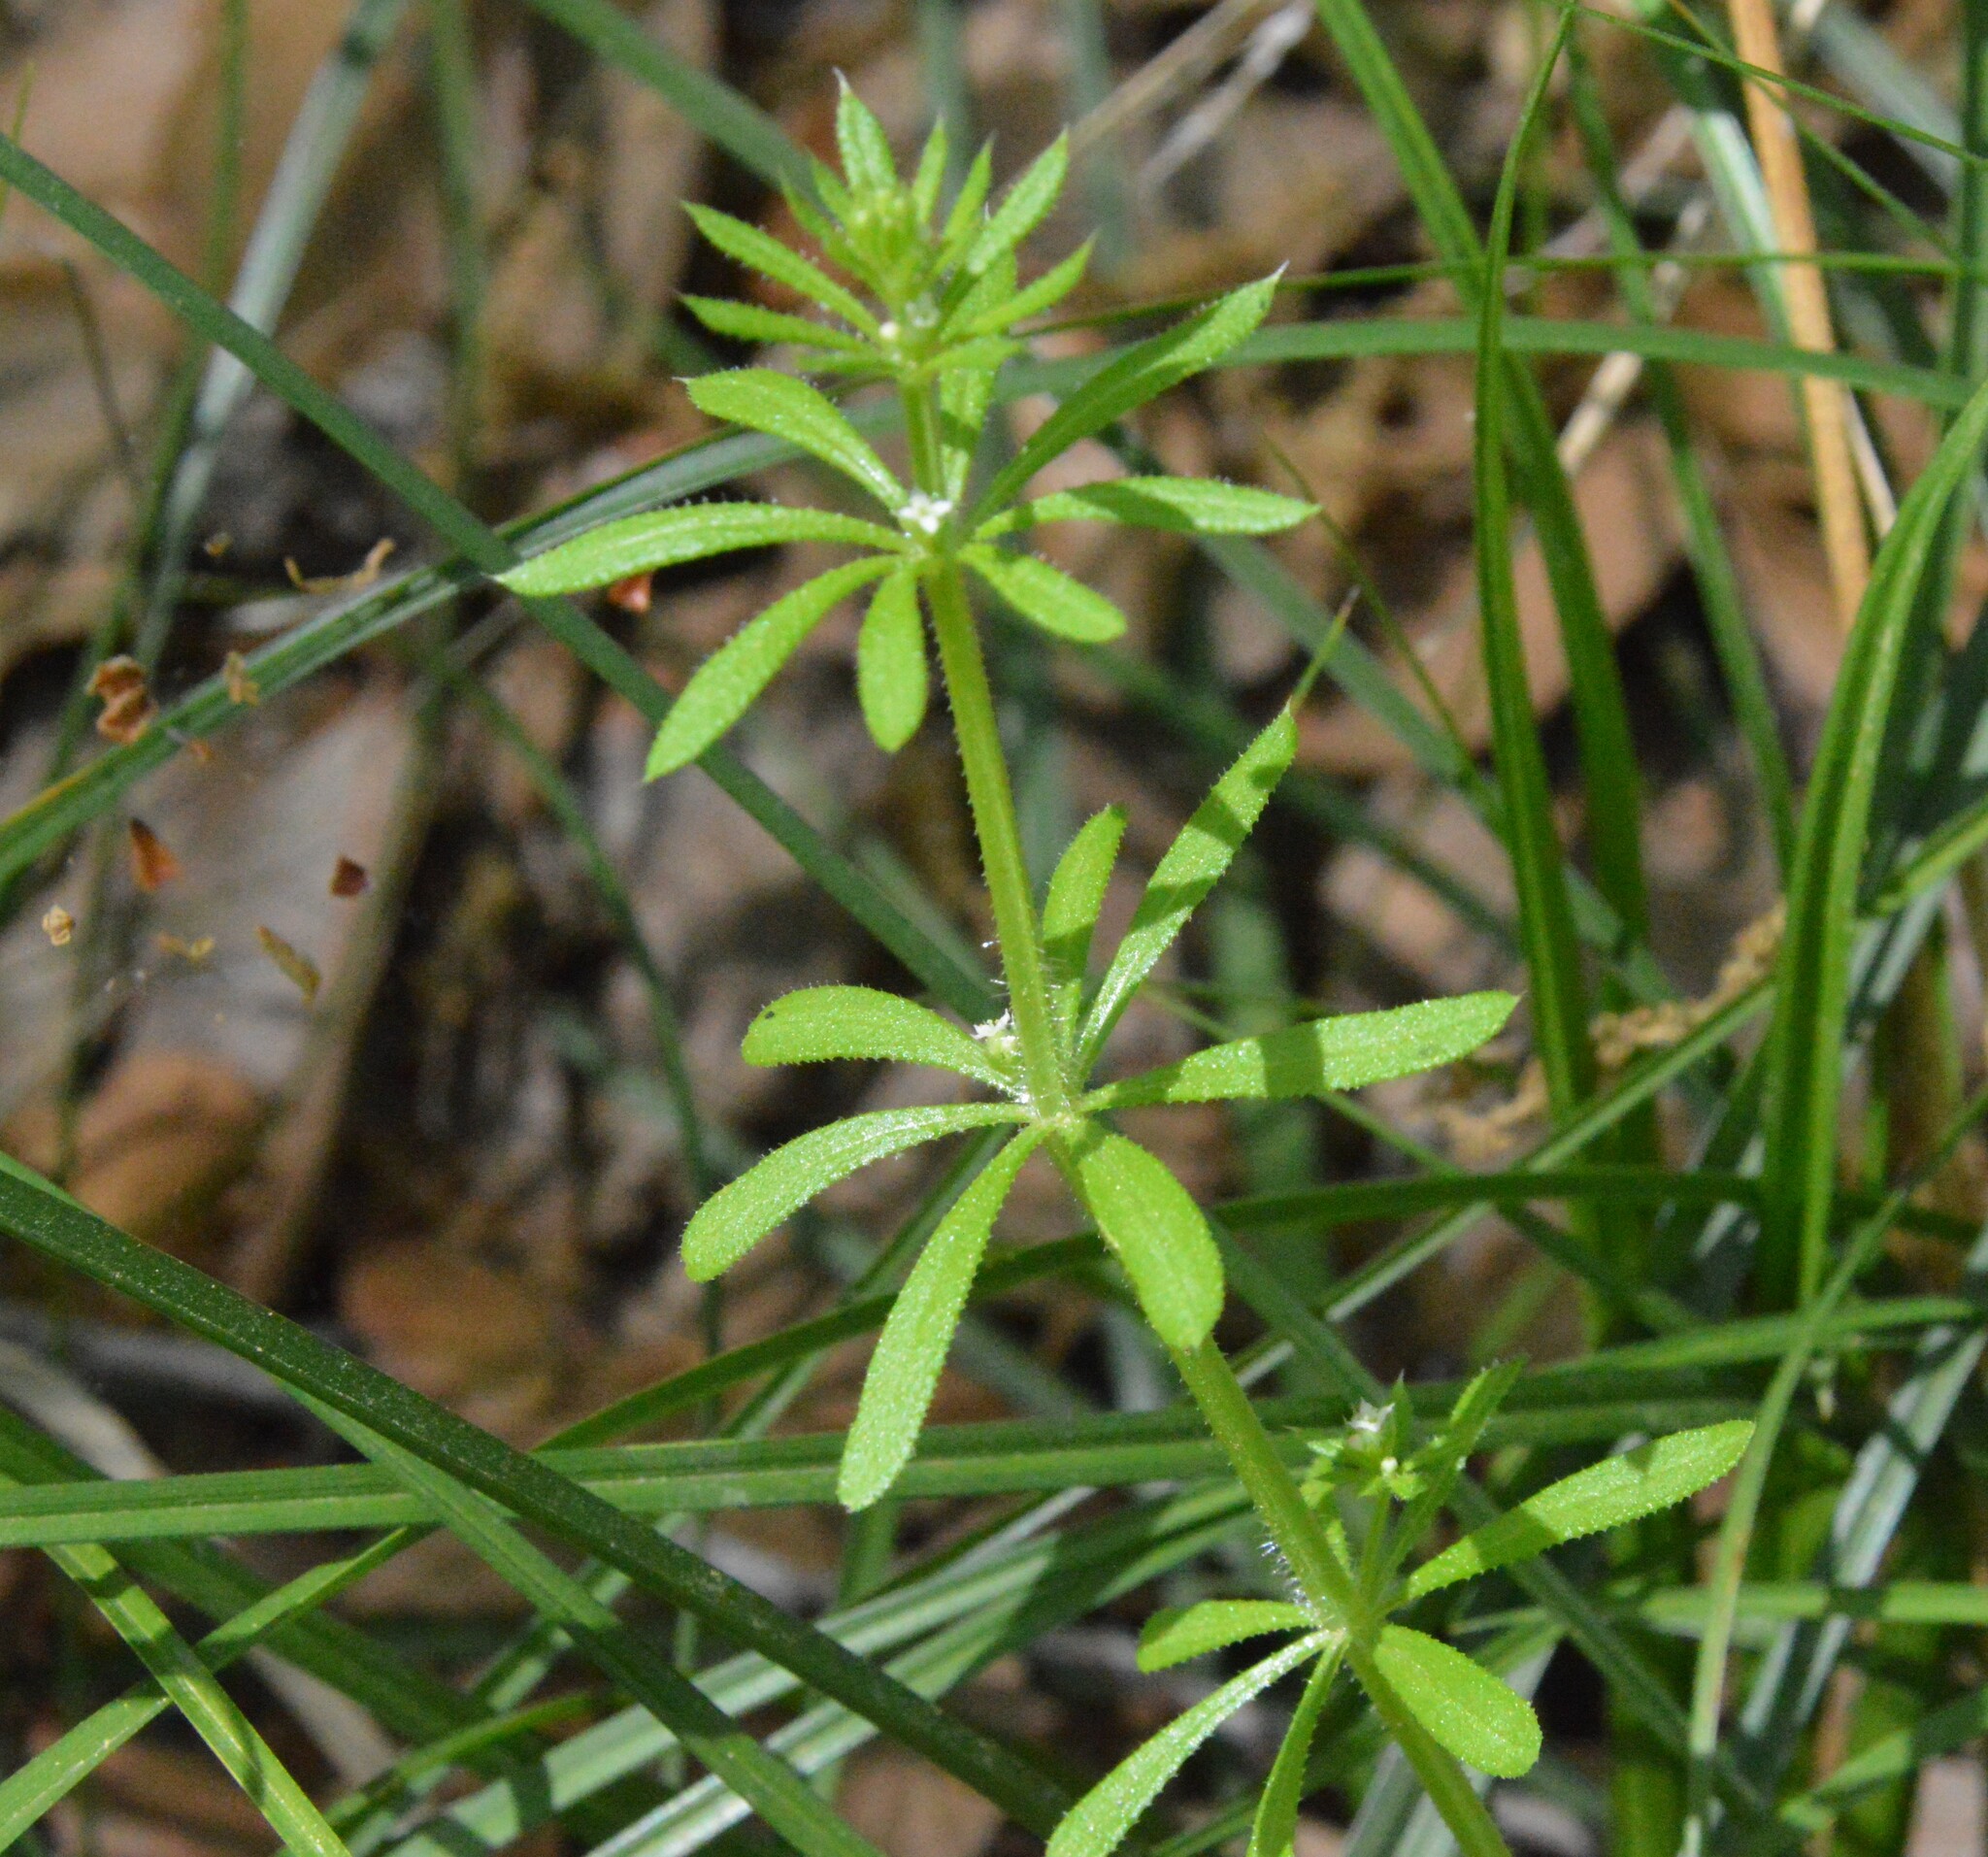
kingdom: Plantae
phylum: Tracheophyta
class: Magnoliopsida
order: Gentianales
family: Rubiaceae
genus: Galium
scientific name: Galium aparine
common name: Cleavers
